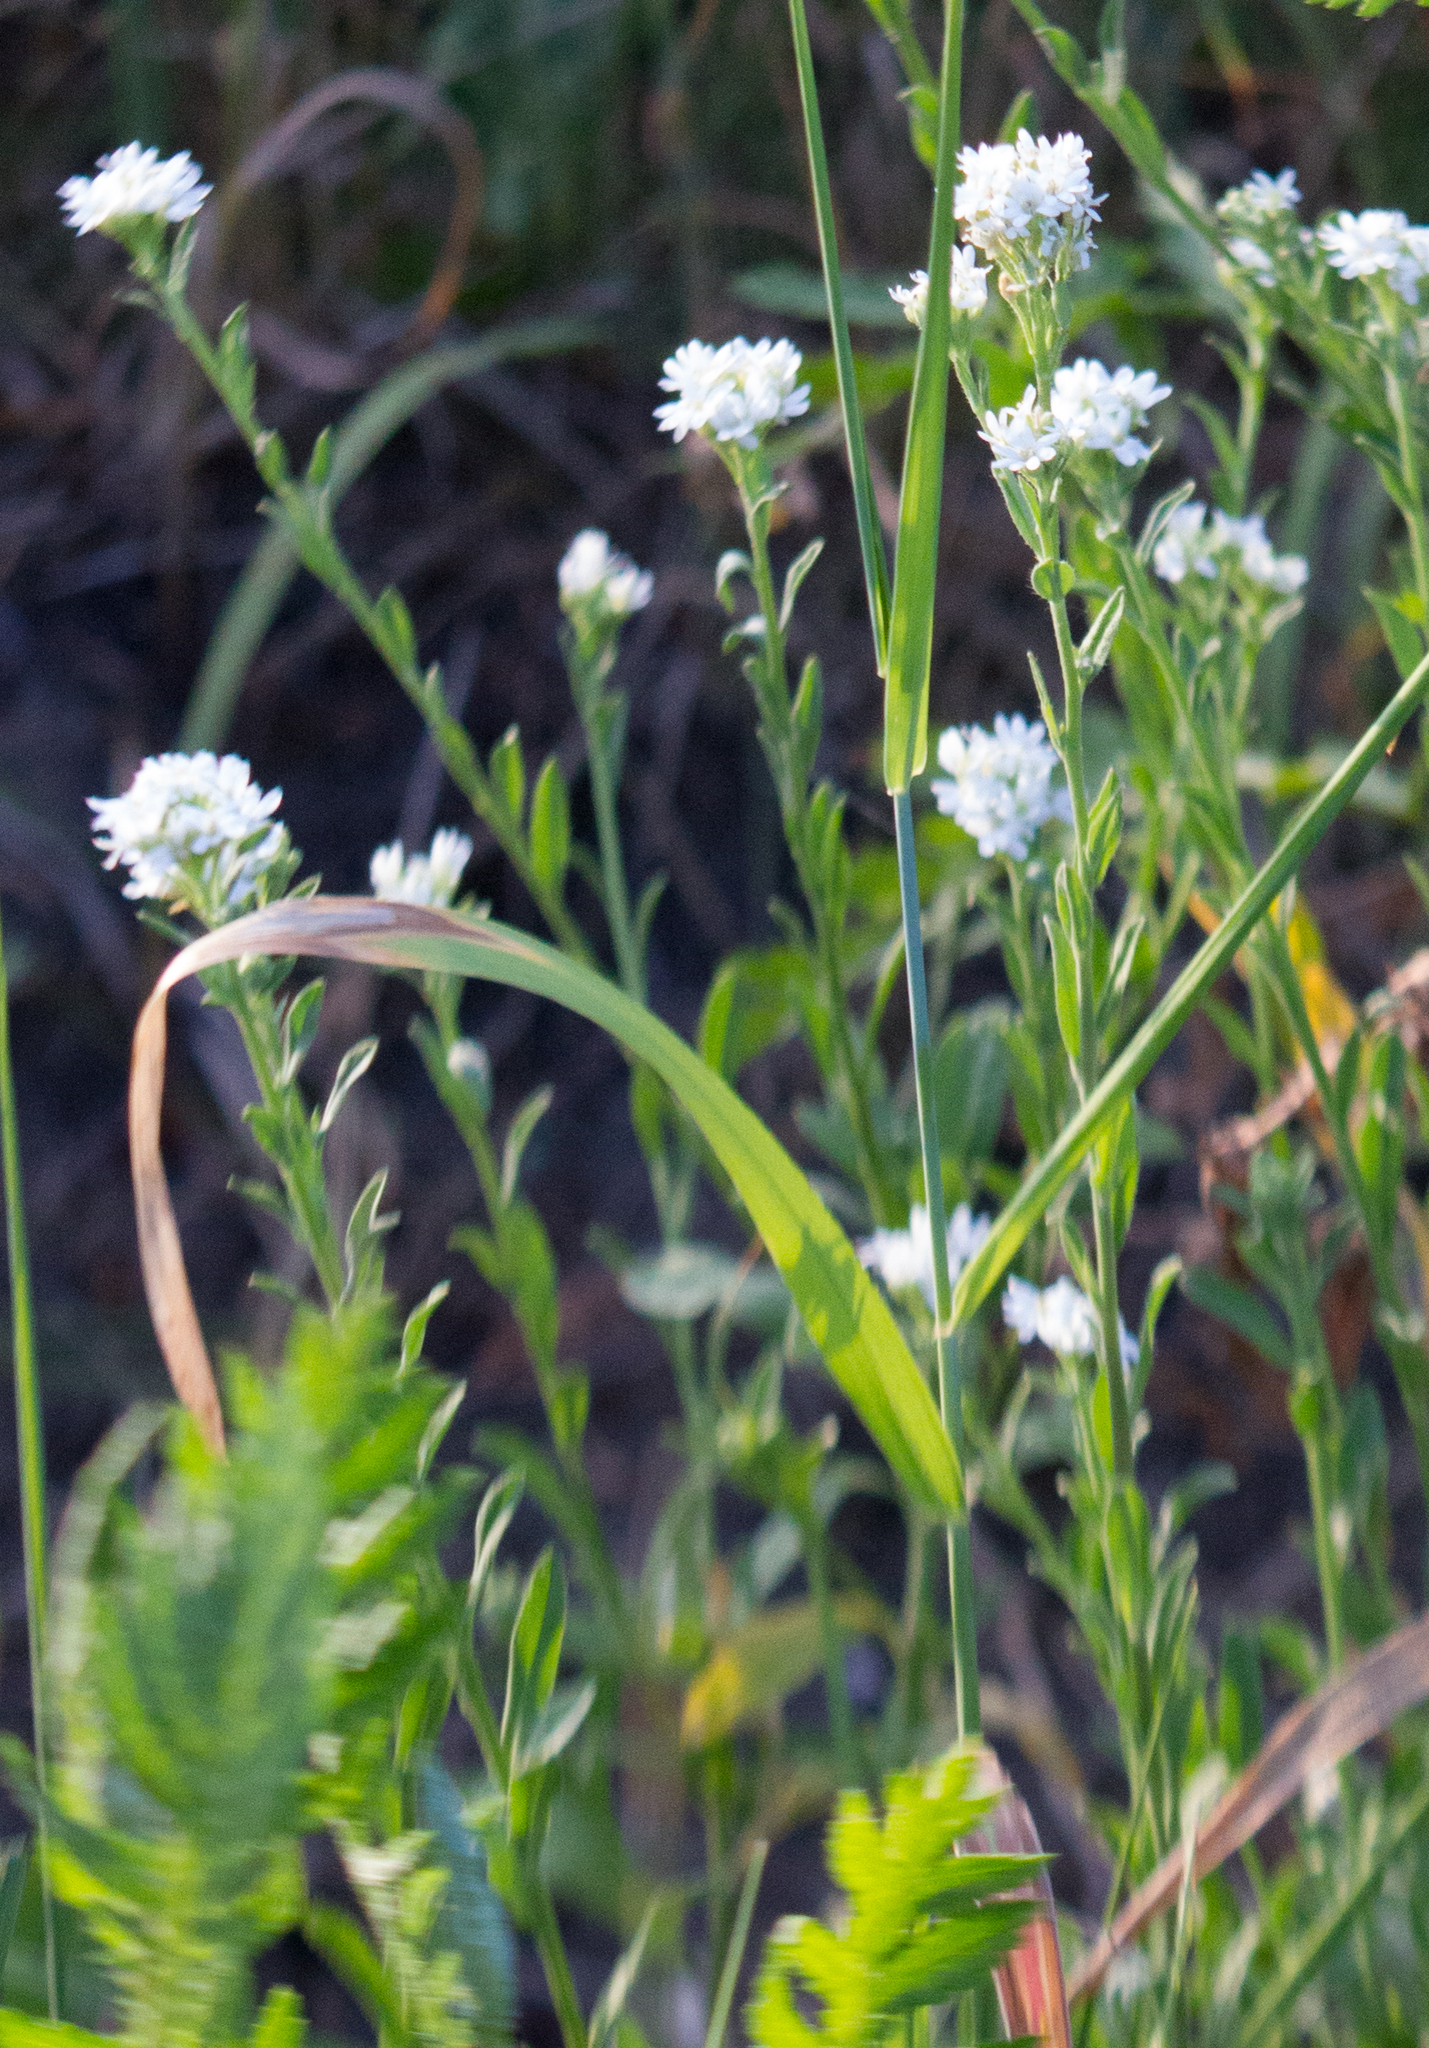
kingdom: Plantae
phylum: Tracheophyta
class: Magnoliopsida
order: Brassicales
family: Brassicaceae
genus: Berteroa
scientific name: Berteroa incana
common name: Hoary alison
